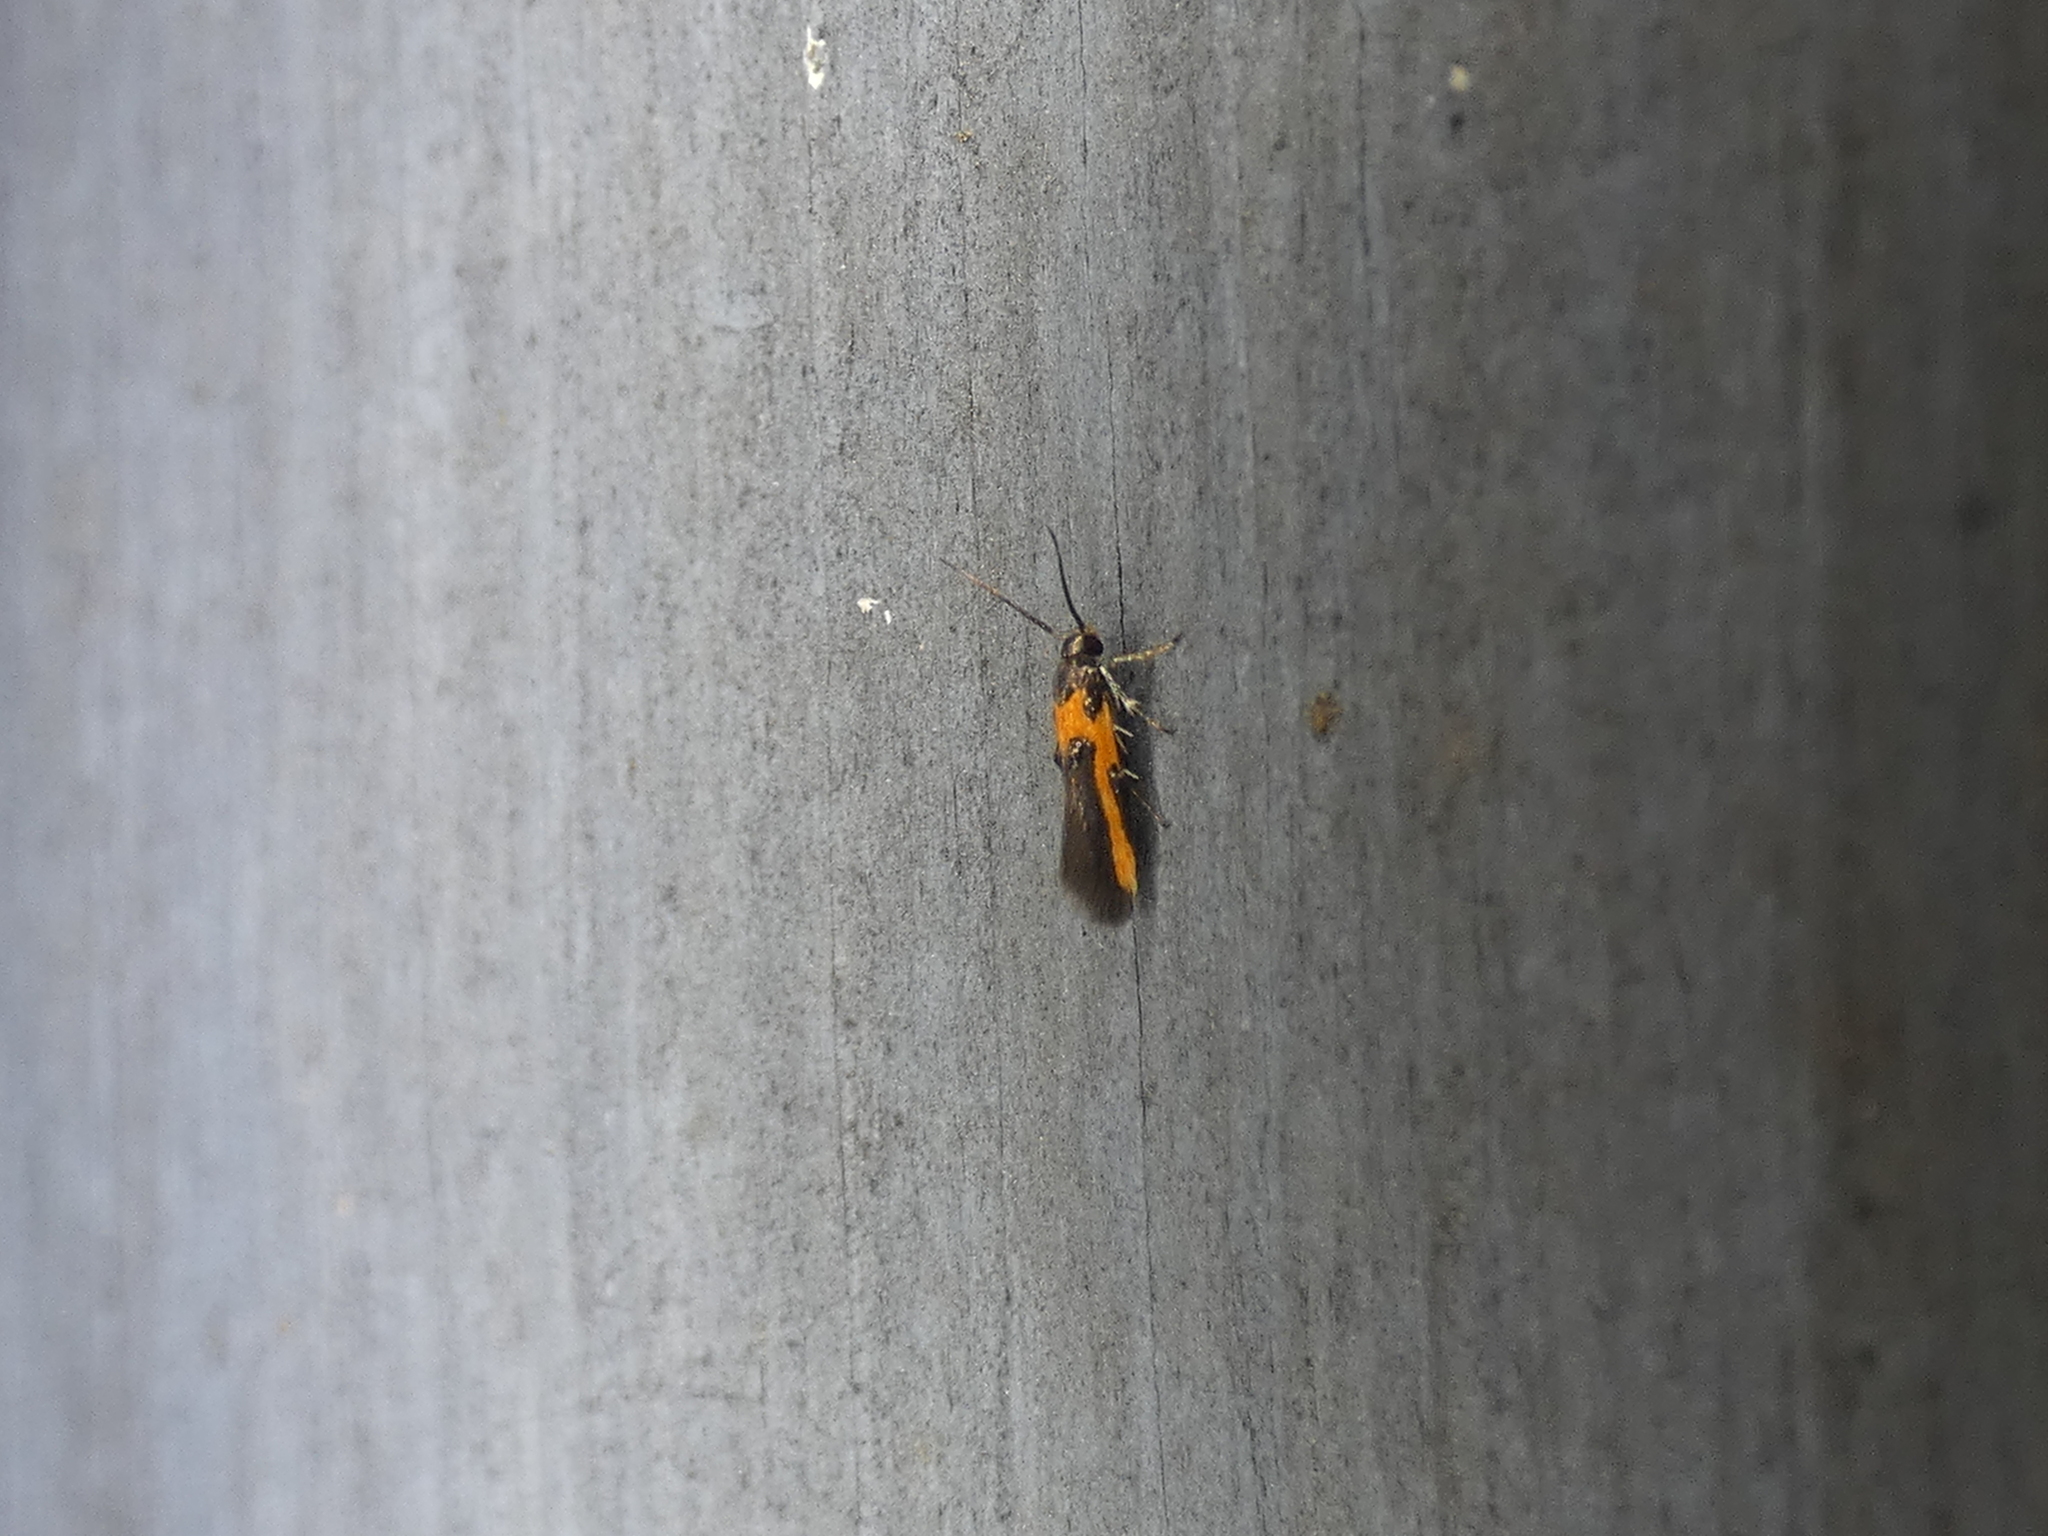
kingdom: Animalia
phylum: Arthropoda
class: Insecta
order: Lepidoptera
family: Cosmopterigidae
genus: Euclemensia
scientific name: Euclemensia bassettella
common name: Kermes scale moth
